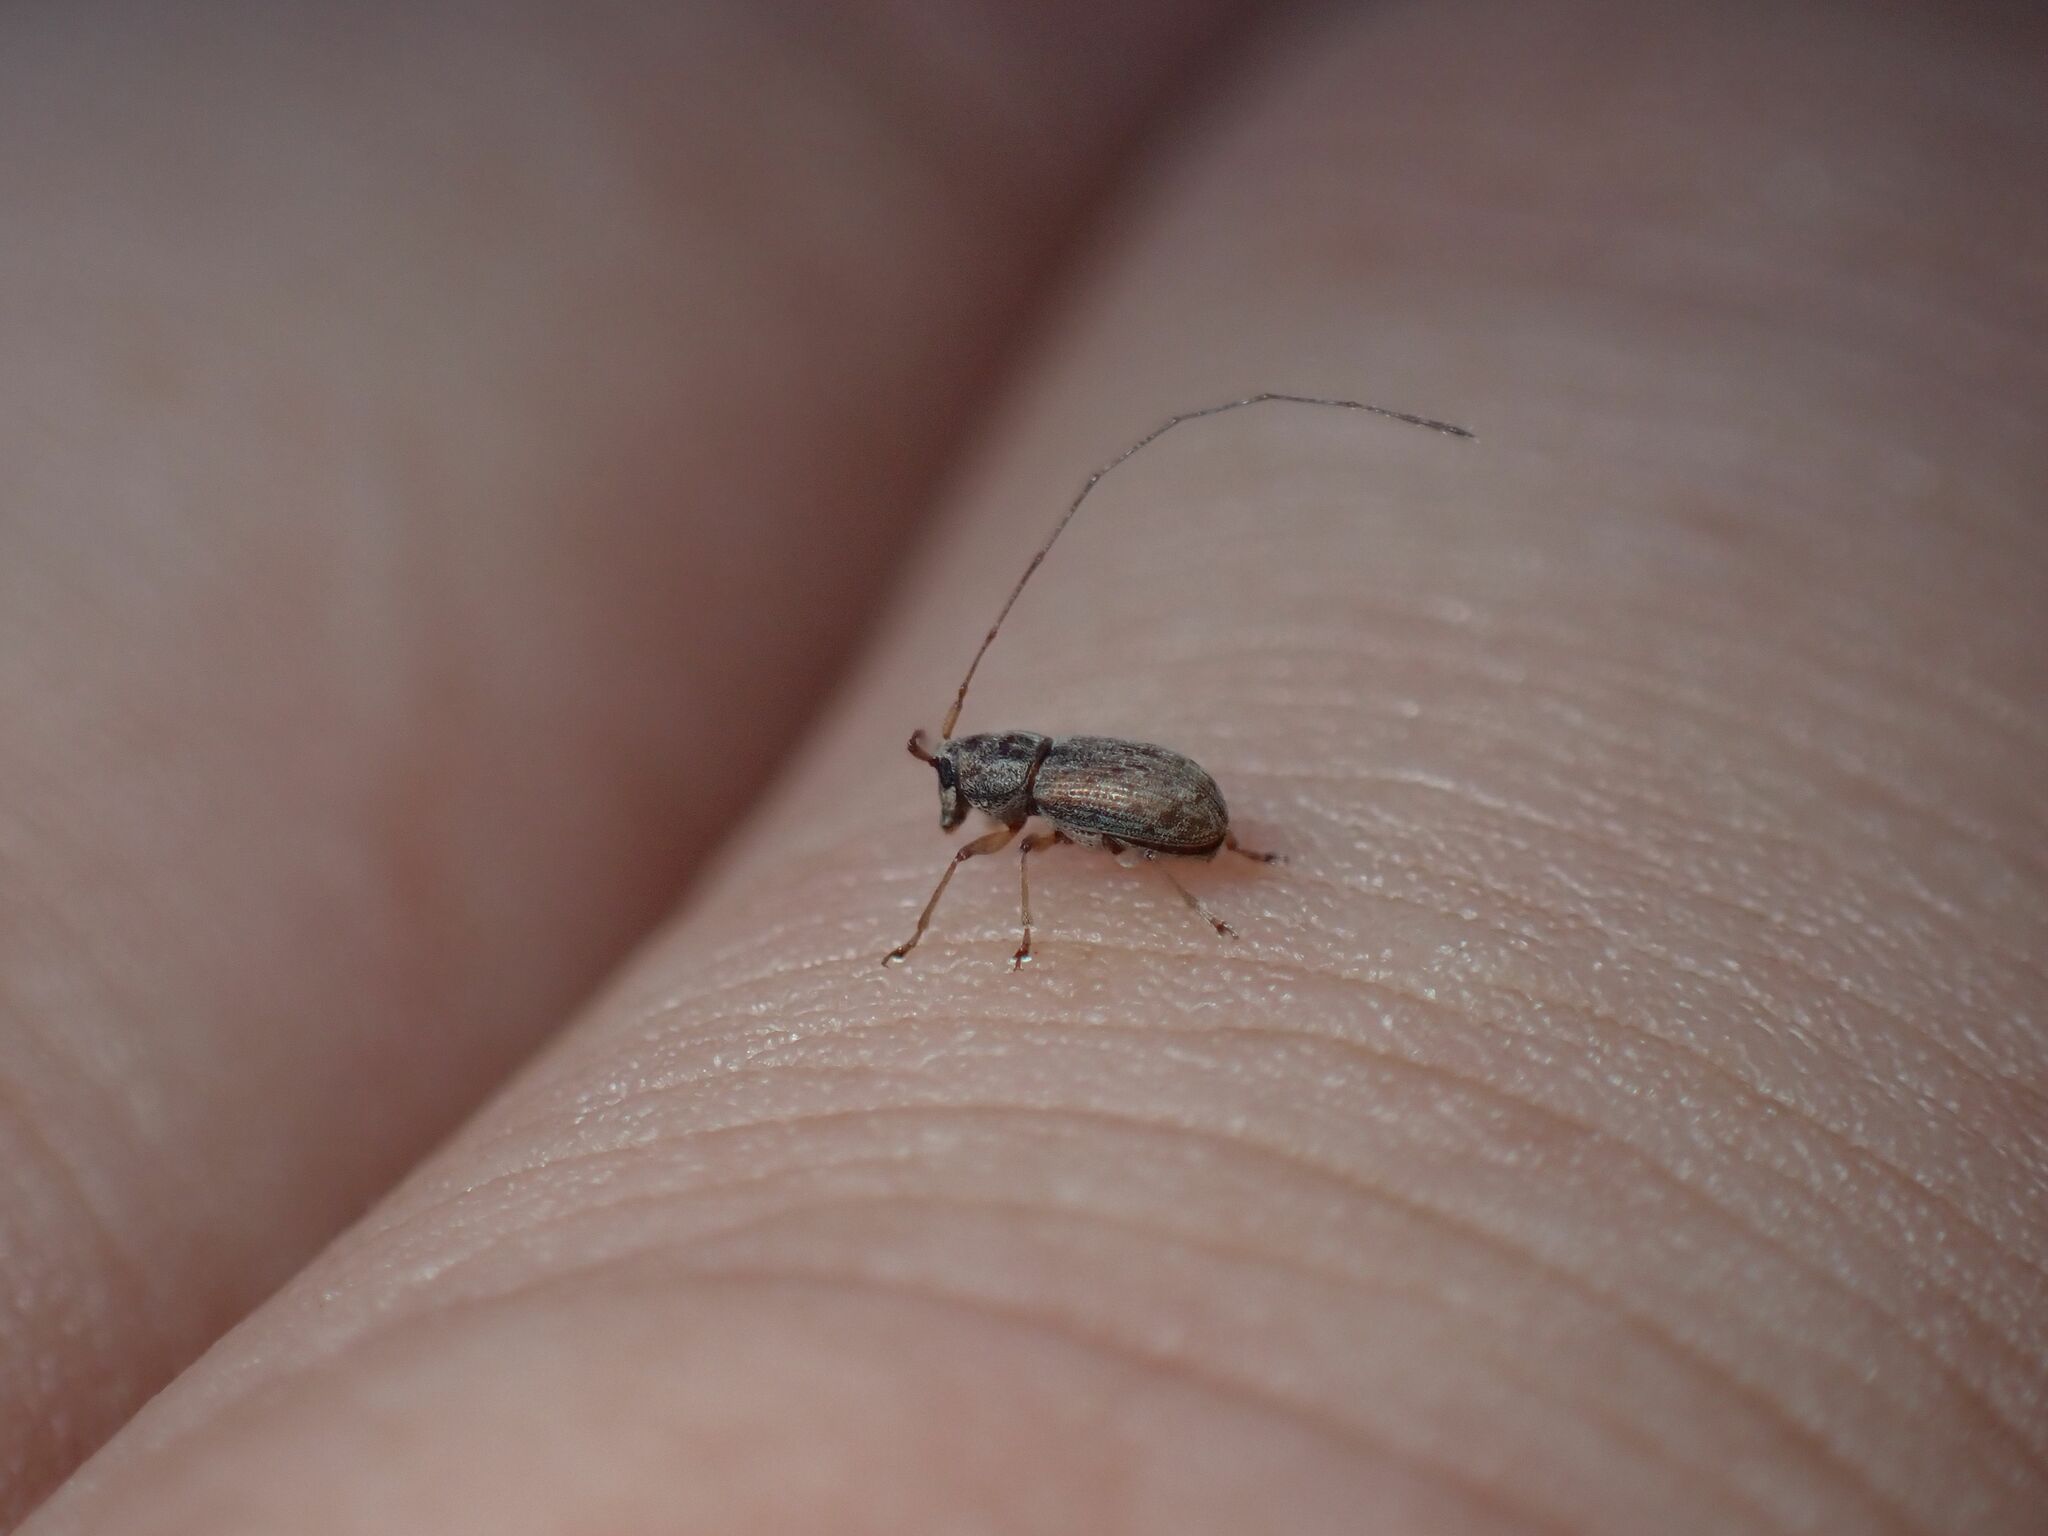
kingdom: Animalia
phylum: Arthropoda
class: Insecta
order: Coleoptera
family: Anthribidae
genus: Dinema
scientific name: Dinema filicornis
